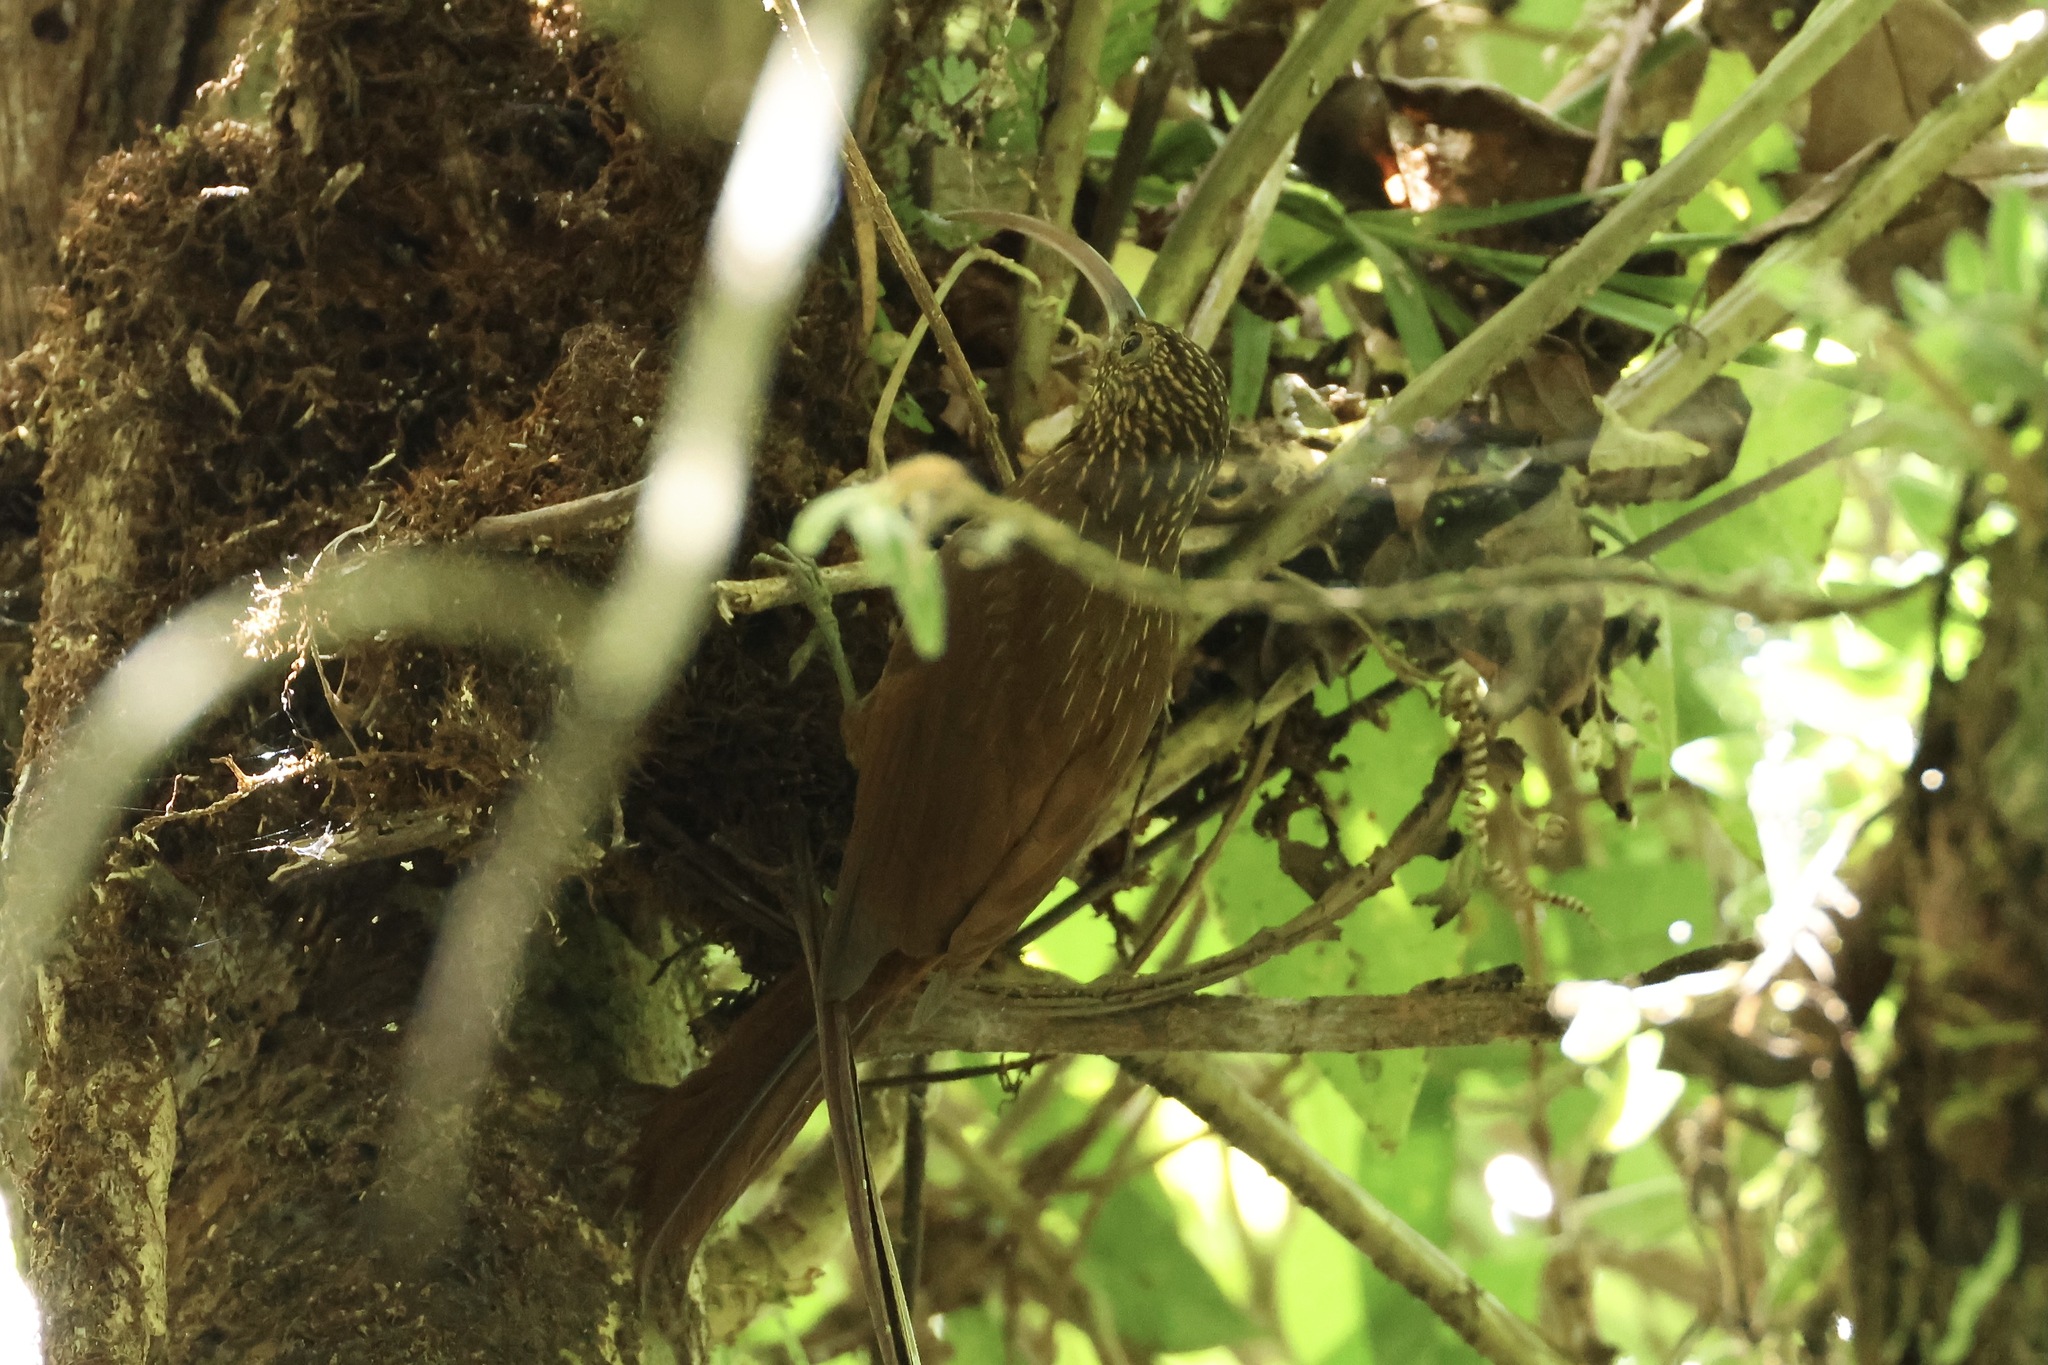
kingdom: Animalia
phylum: Chordata
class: Aves
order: Passeriformes
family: Furnariidae
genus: Campylorhamphus
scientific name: Campylorhamphus pusillus
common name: Brown-billed scythebill
